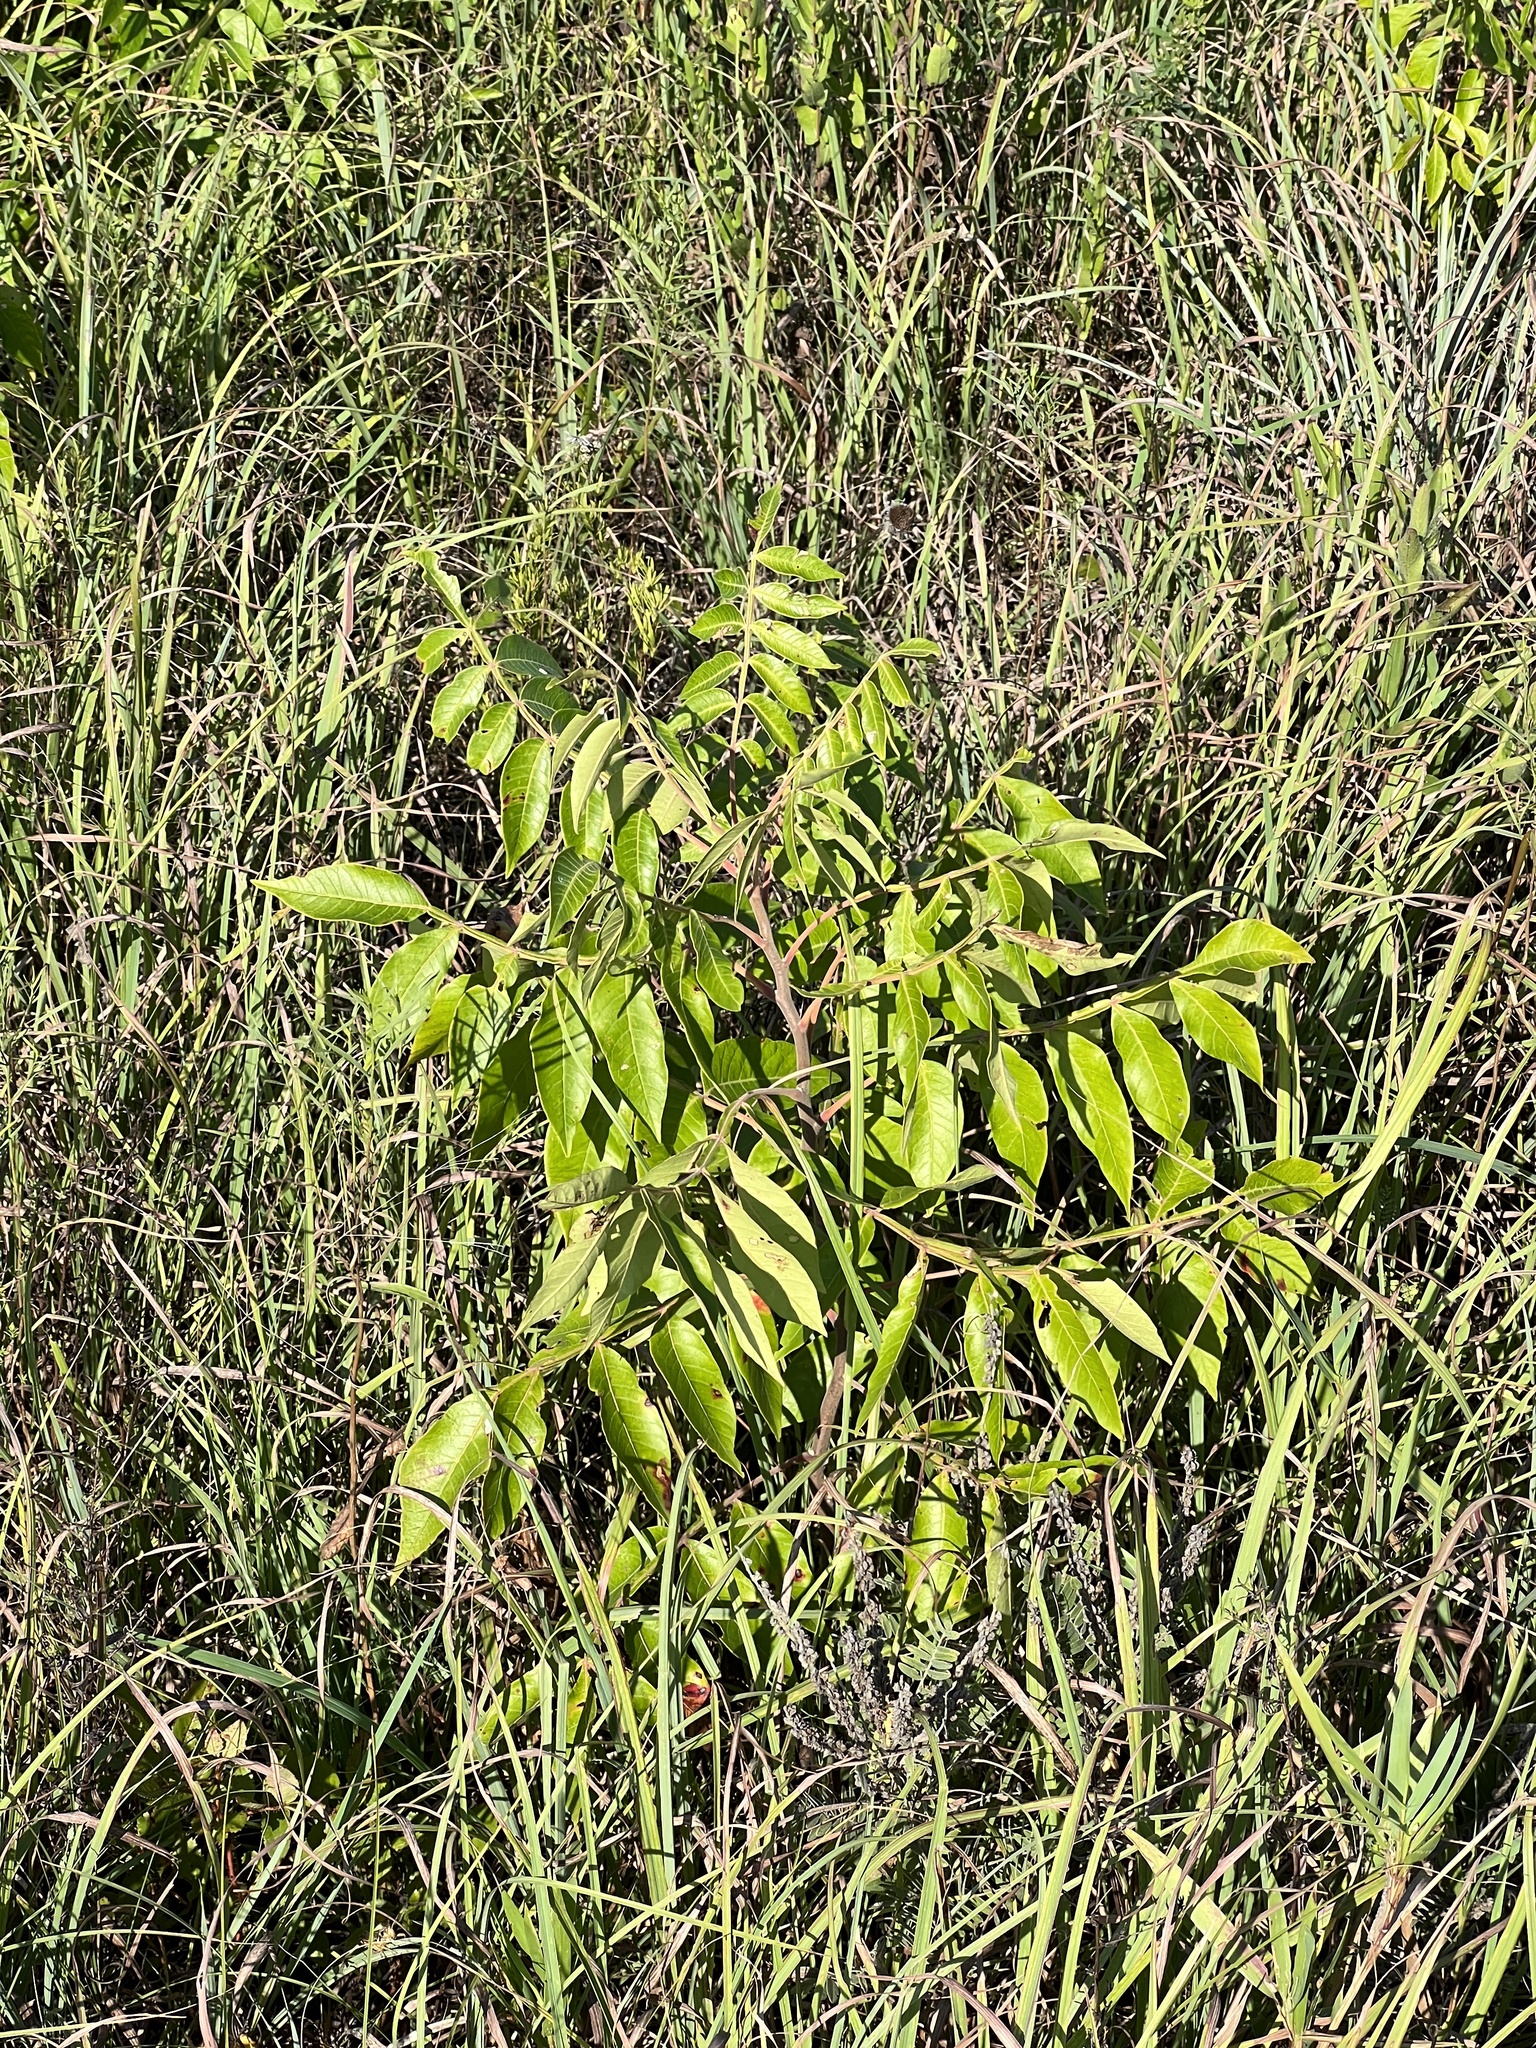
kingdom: Plantae
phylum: Tracheophyta
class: Magnoliopsida
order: Sapindales
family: Anacardiaceae
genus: Rhus
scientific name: Rhus copallina
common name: Shining sumac
